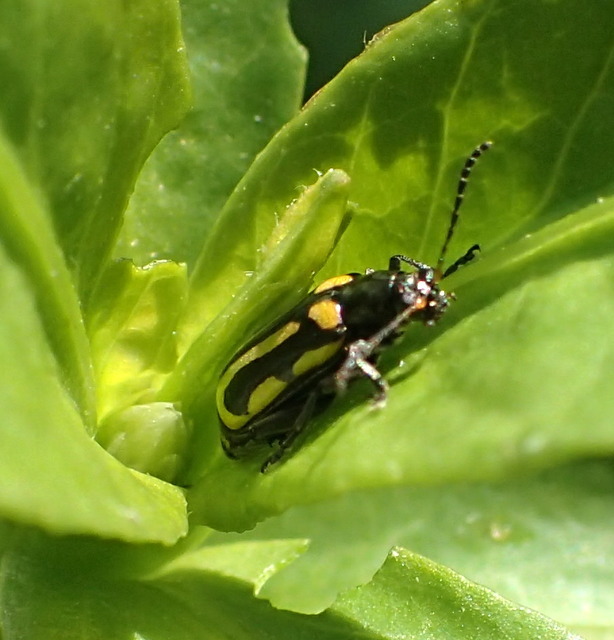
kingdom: Animalia
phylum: Arthropoda
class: Insecta
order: Coleoptera
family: Chrysomelidae
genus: Agasicles
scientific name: Agasicles hygrophila
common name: Alligatorweed flea beetle
